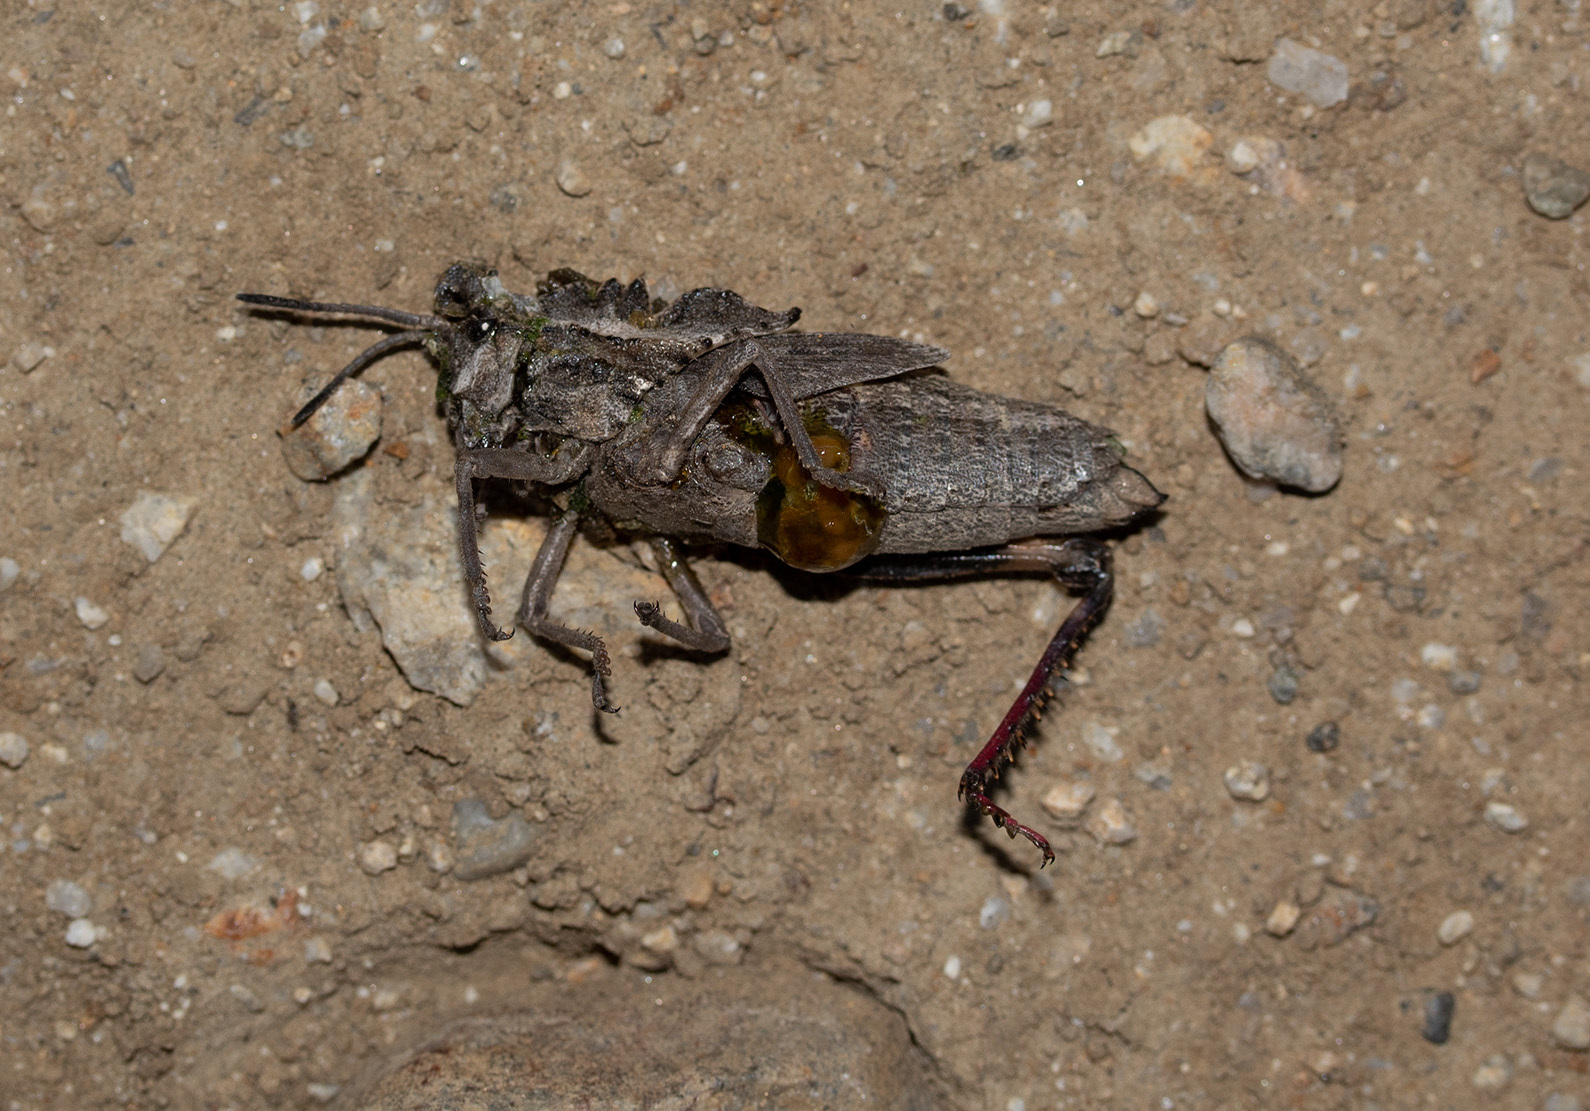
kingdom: Animalia
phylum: Arthropoda
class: Insecta
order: Orthoptera
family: Romaleidae
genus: Dracotettix
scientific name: Dracotettix monstrosus
